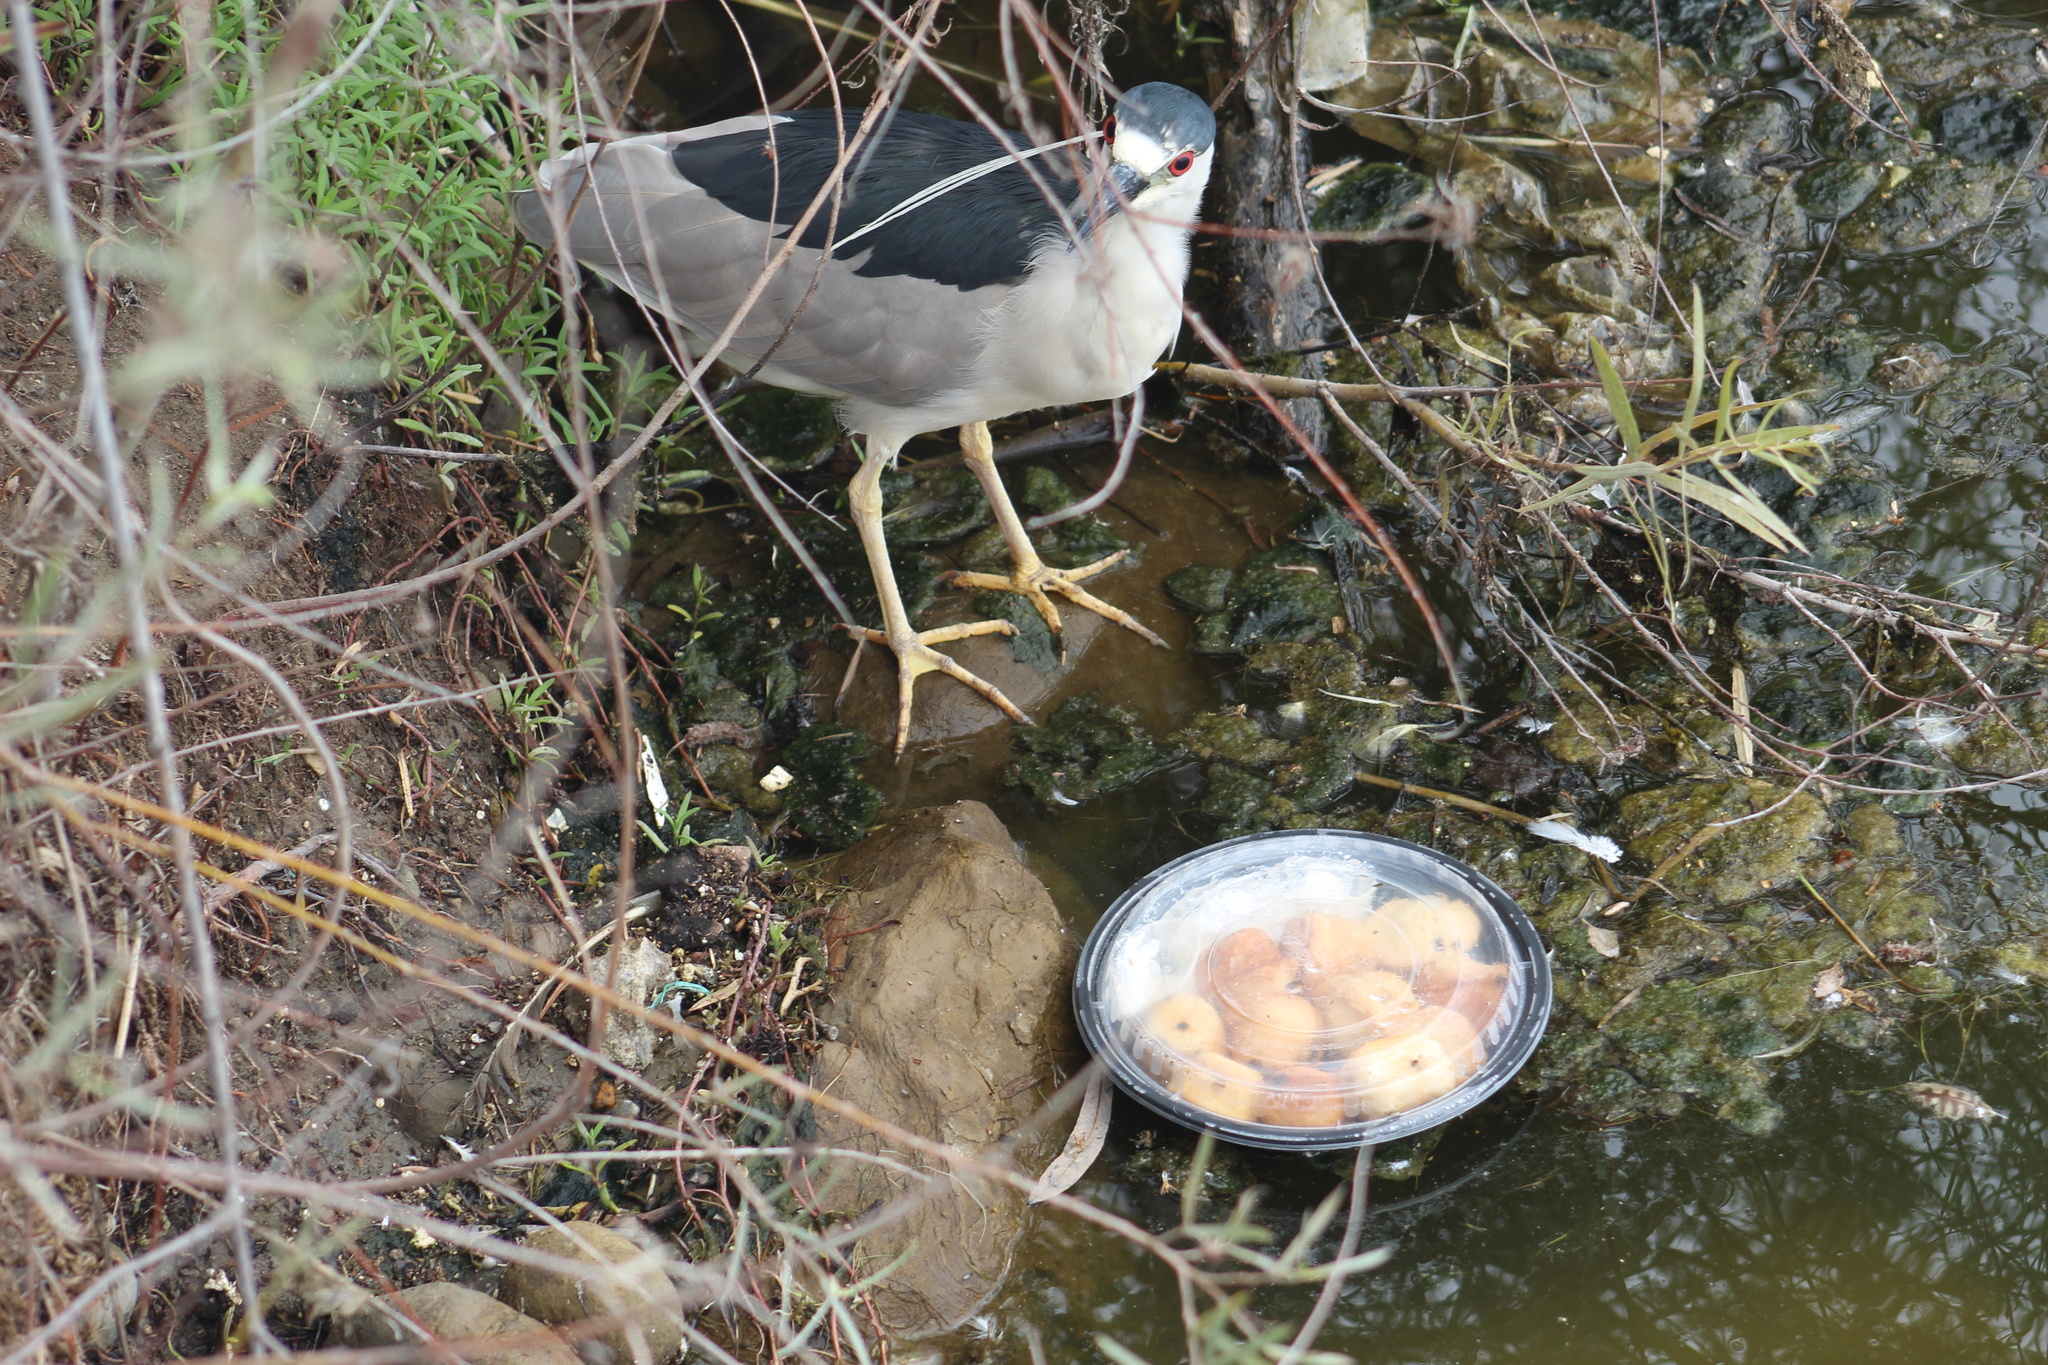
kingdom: Animalia
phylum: Chordata
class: Aves
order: Pelecaniformes
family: Ardeidae
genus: Nycticorax
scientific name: Nycticorax nycticorax
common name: Black-crowned night heron
